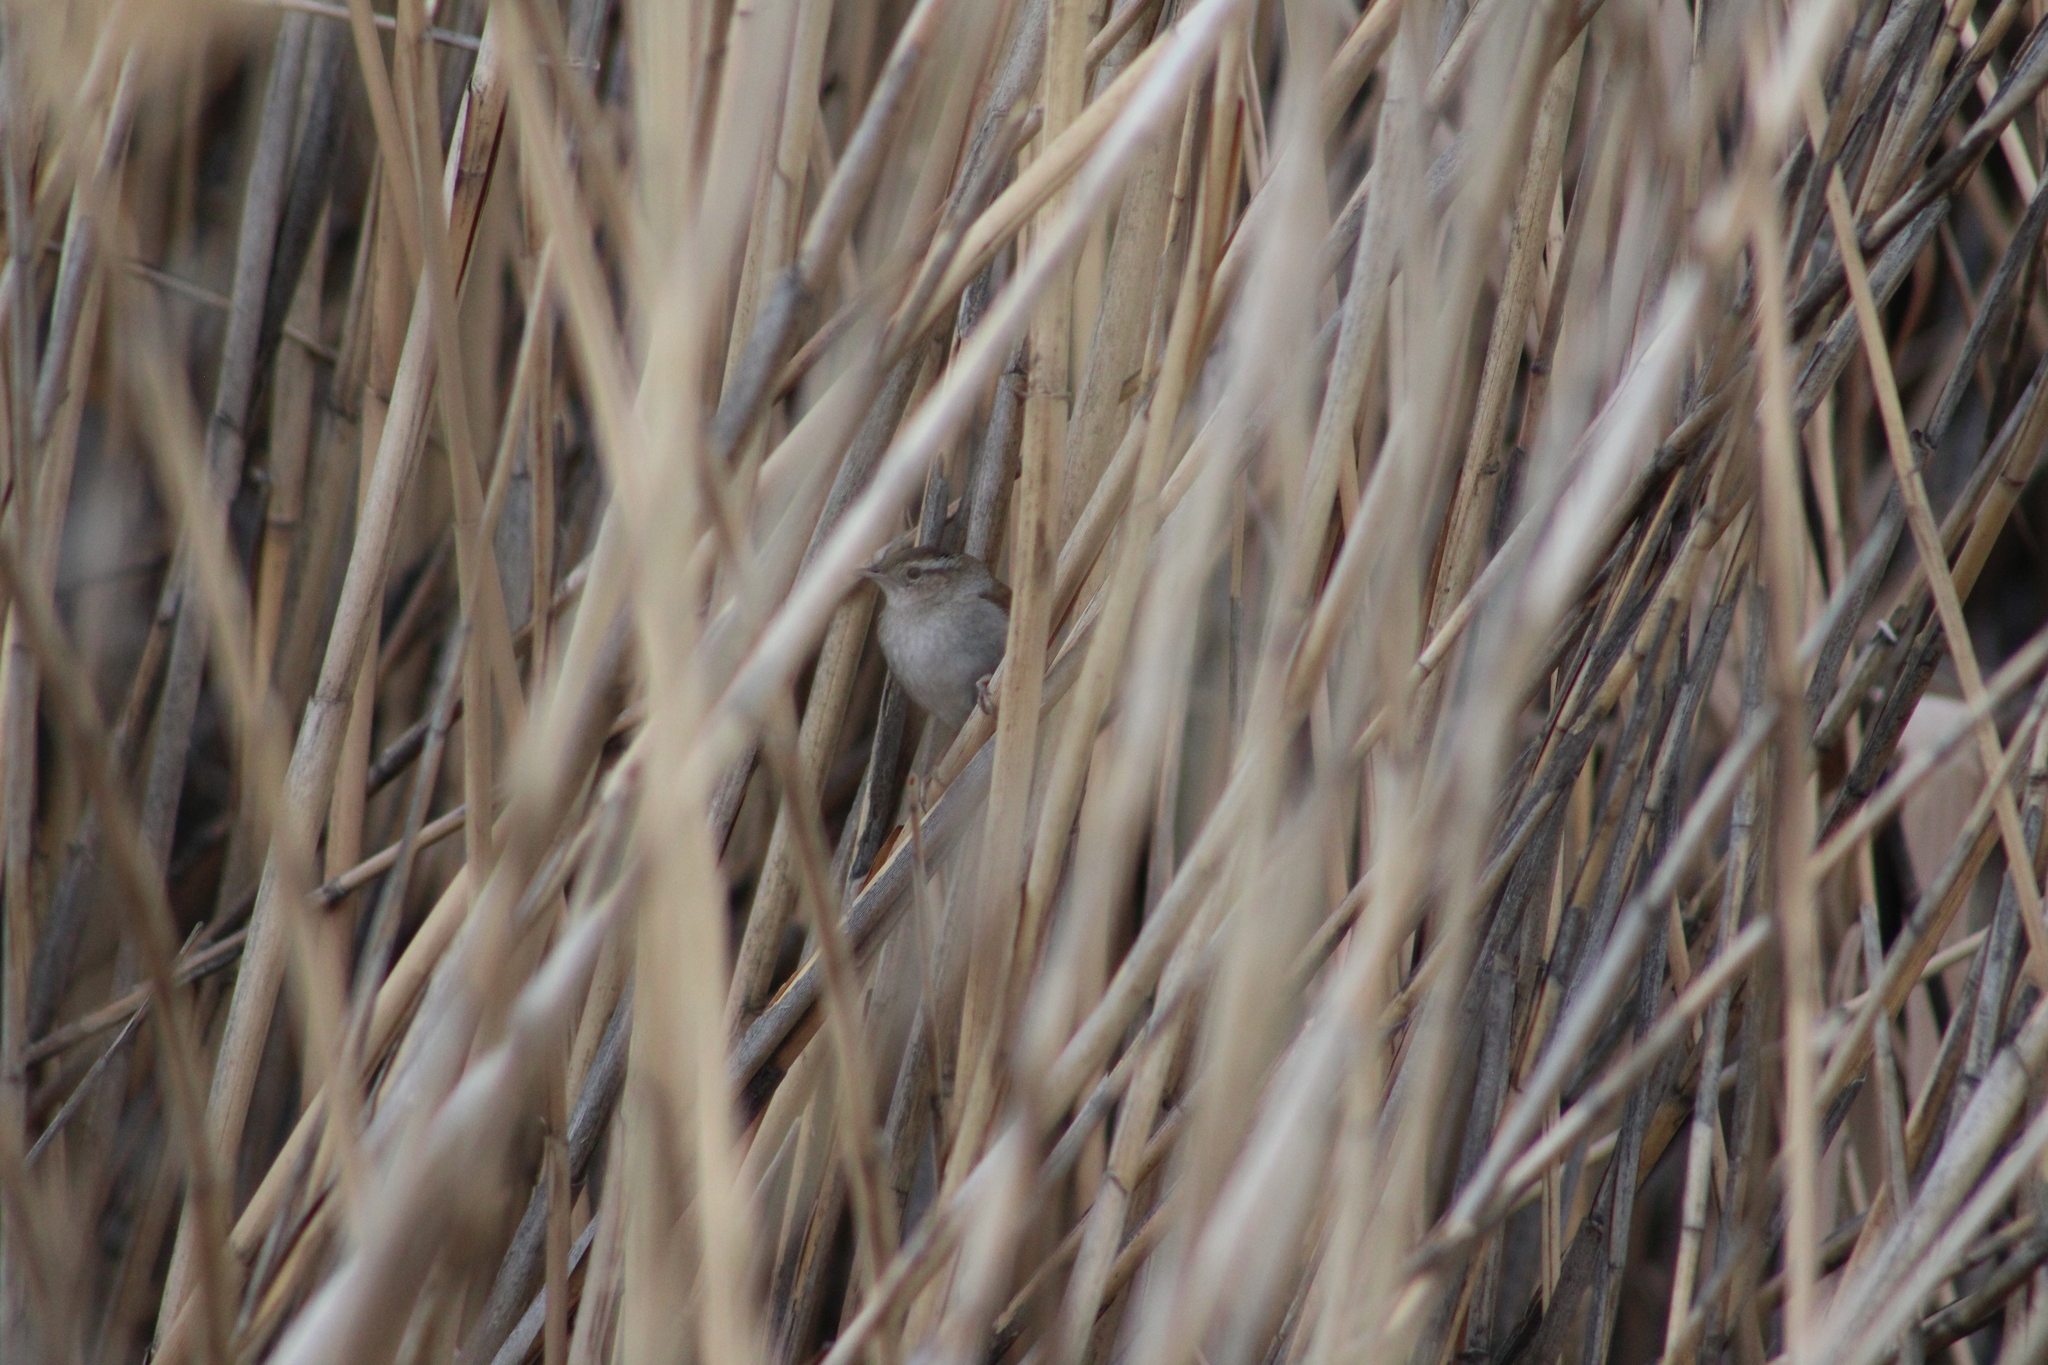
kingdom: Animalia
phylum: Chordata
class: Aves
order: Passeriformes
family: Troglodytidae
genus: Cistothorus
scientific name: Cistothorus palustris
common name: Marsh wren
